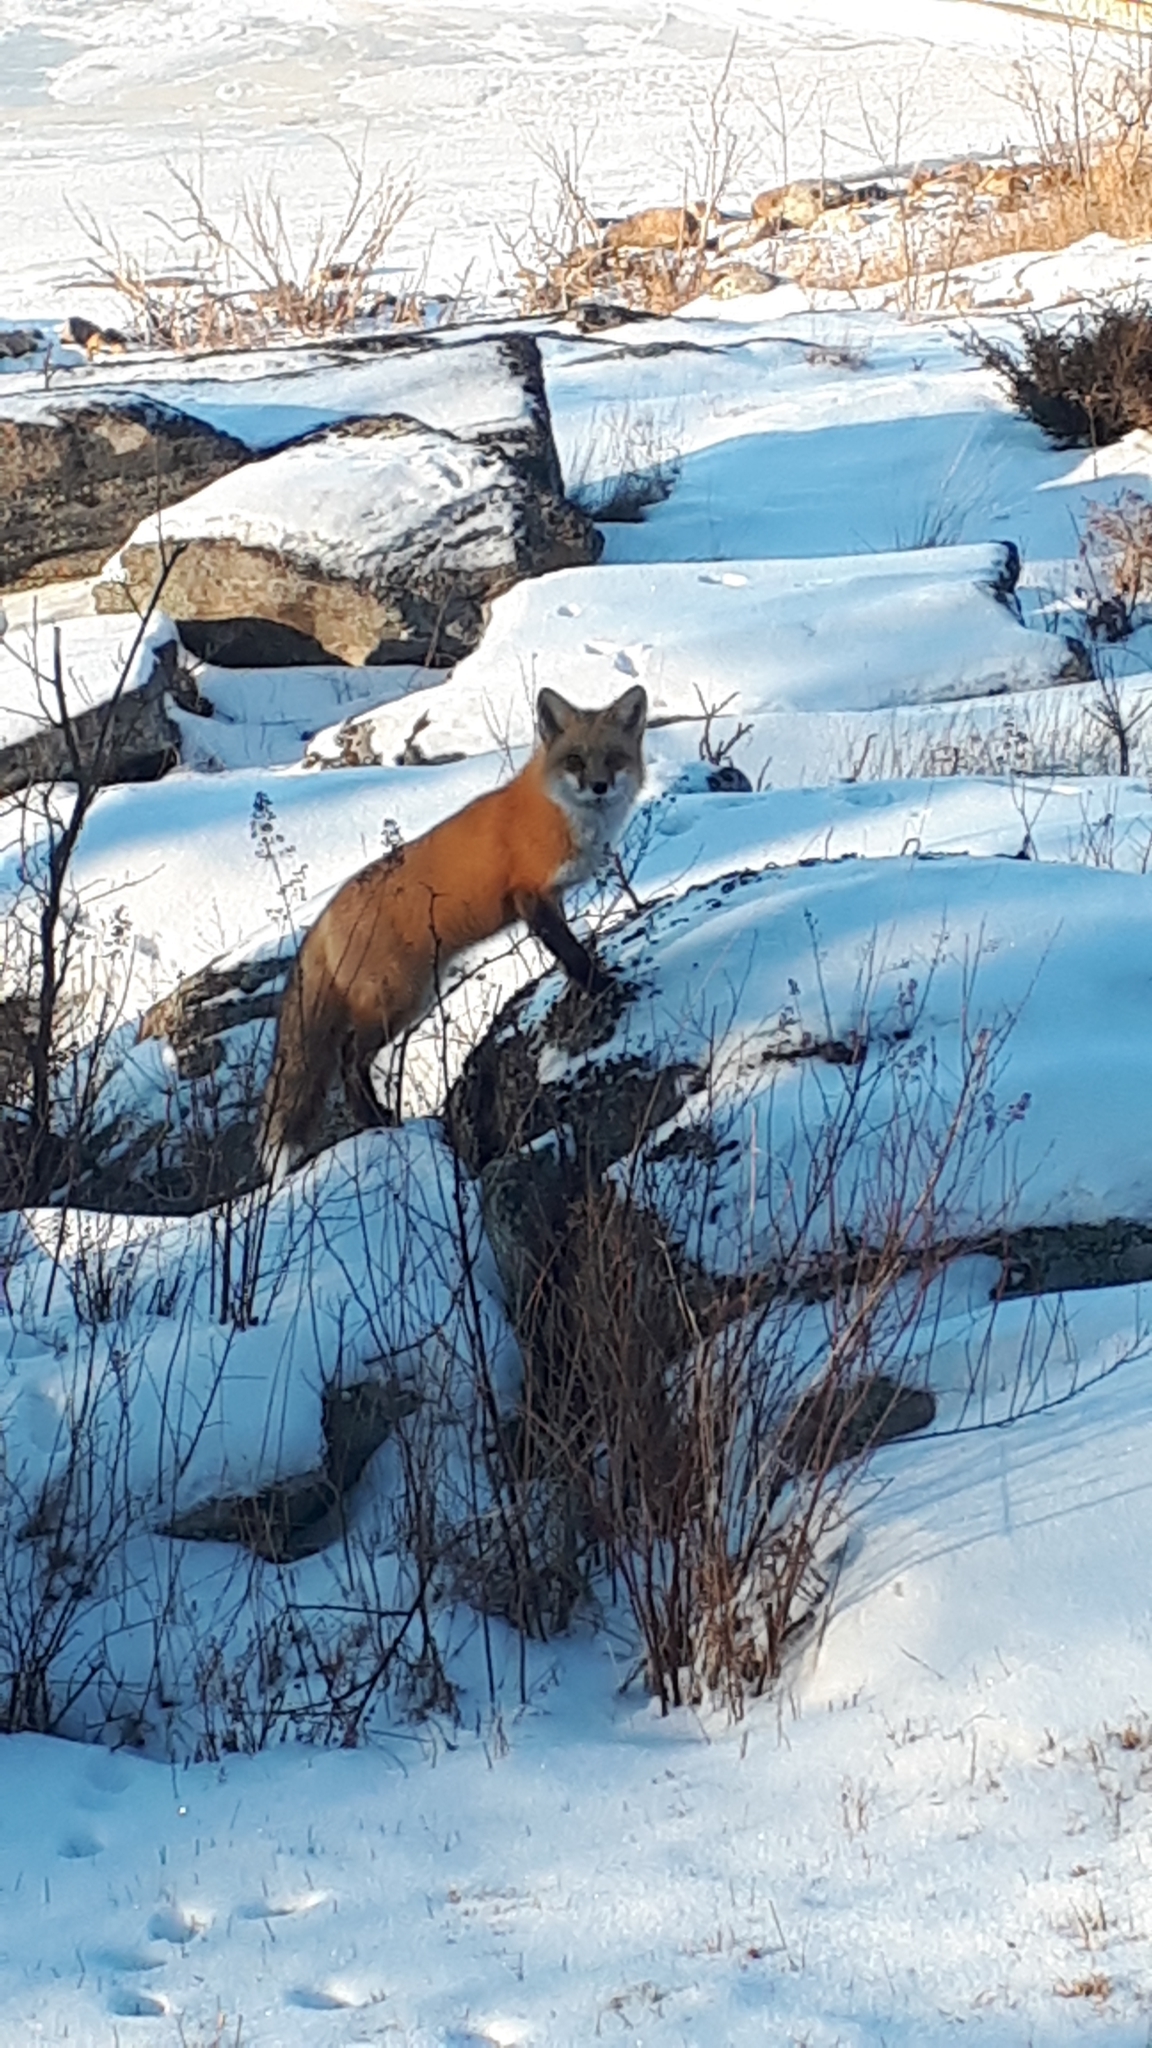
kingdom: Animalia
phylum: Chordata
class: Mammalia
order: Carnivora
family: Canidae
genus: Vulpes
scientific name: Vulpes vulpes
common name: Red fox
